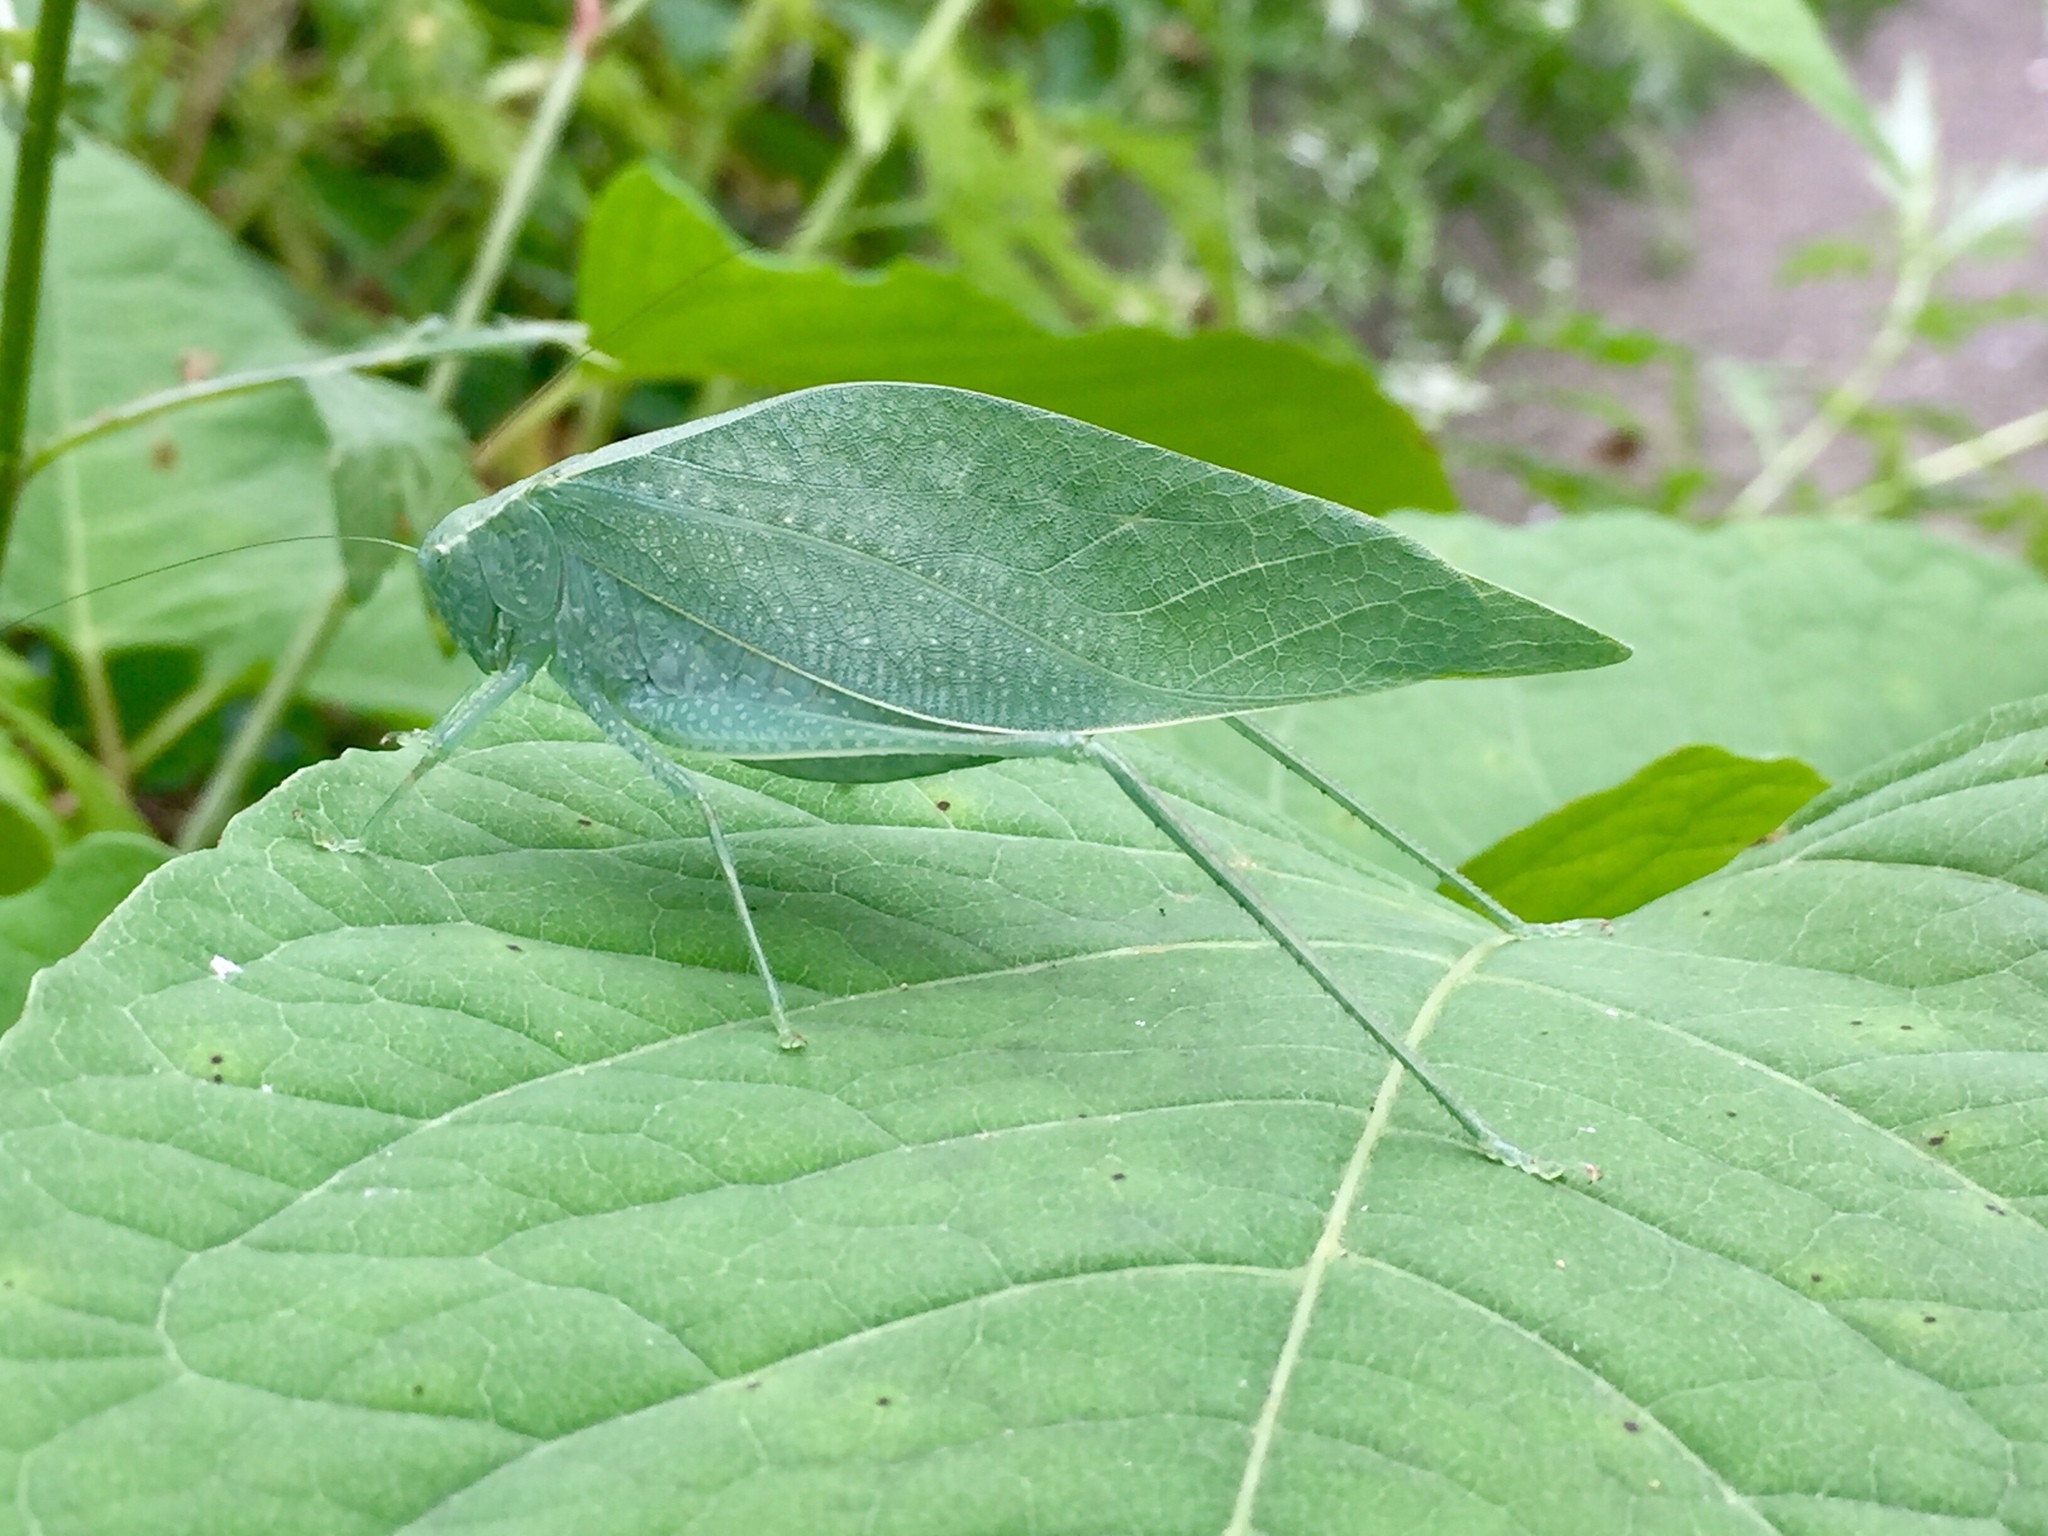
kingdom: Animalia
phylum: Arthropoda
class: Insecta
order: Orthoptera
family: Tettigoniidae
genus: Microcentrum
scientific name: Microcentrum rhombifolium
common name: Broad-winged katydid
